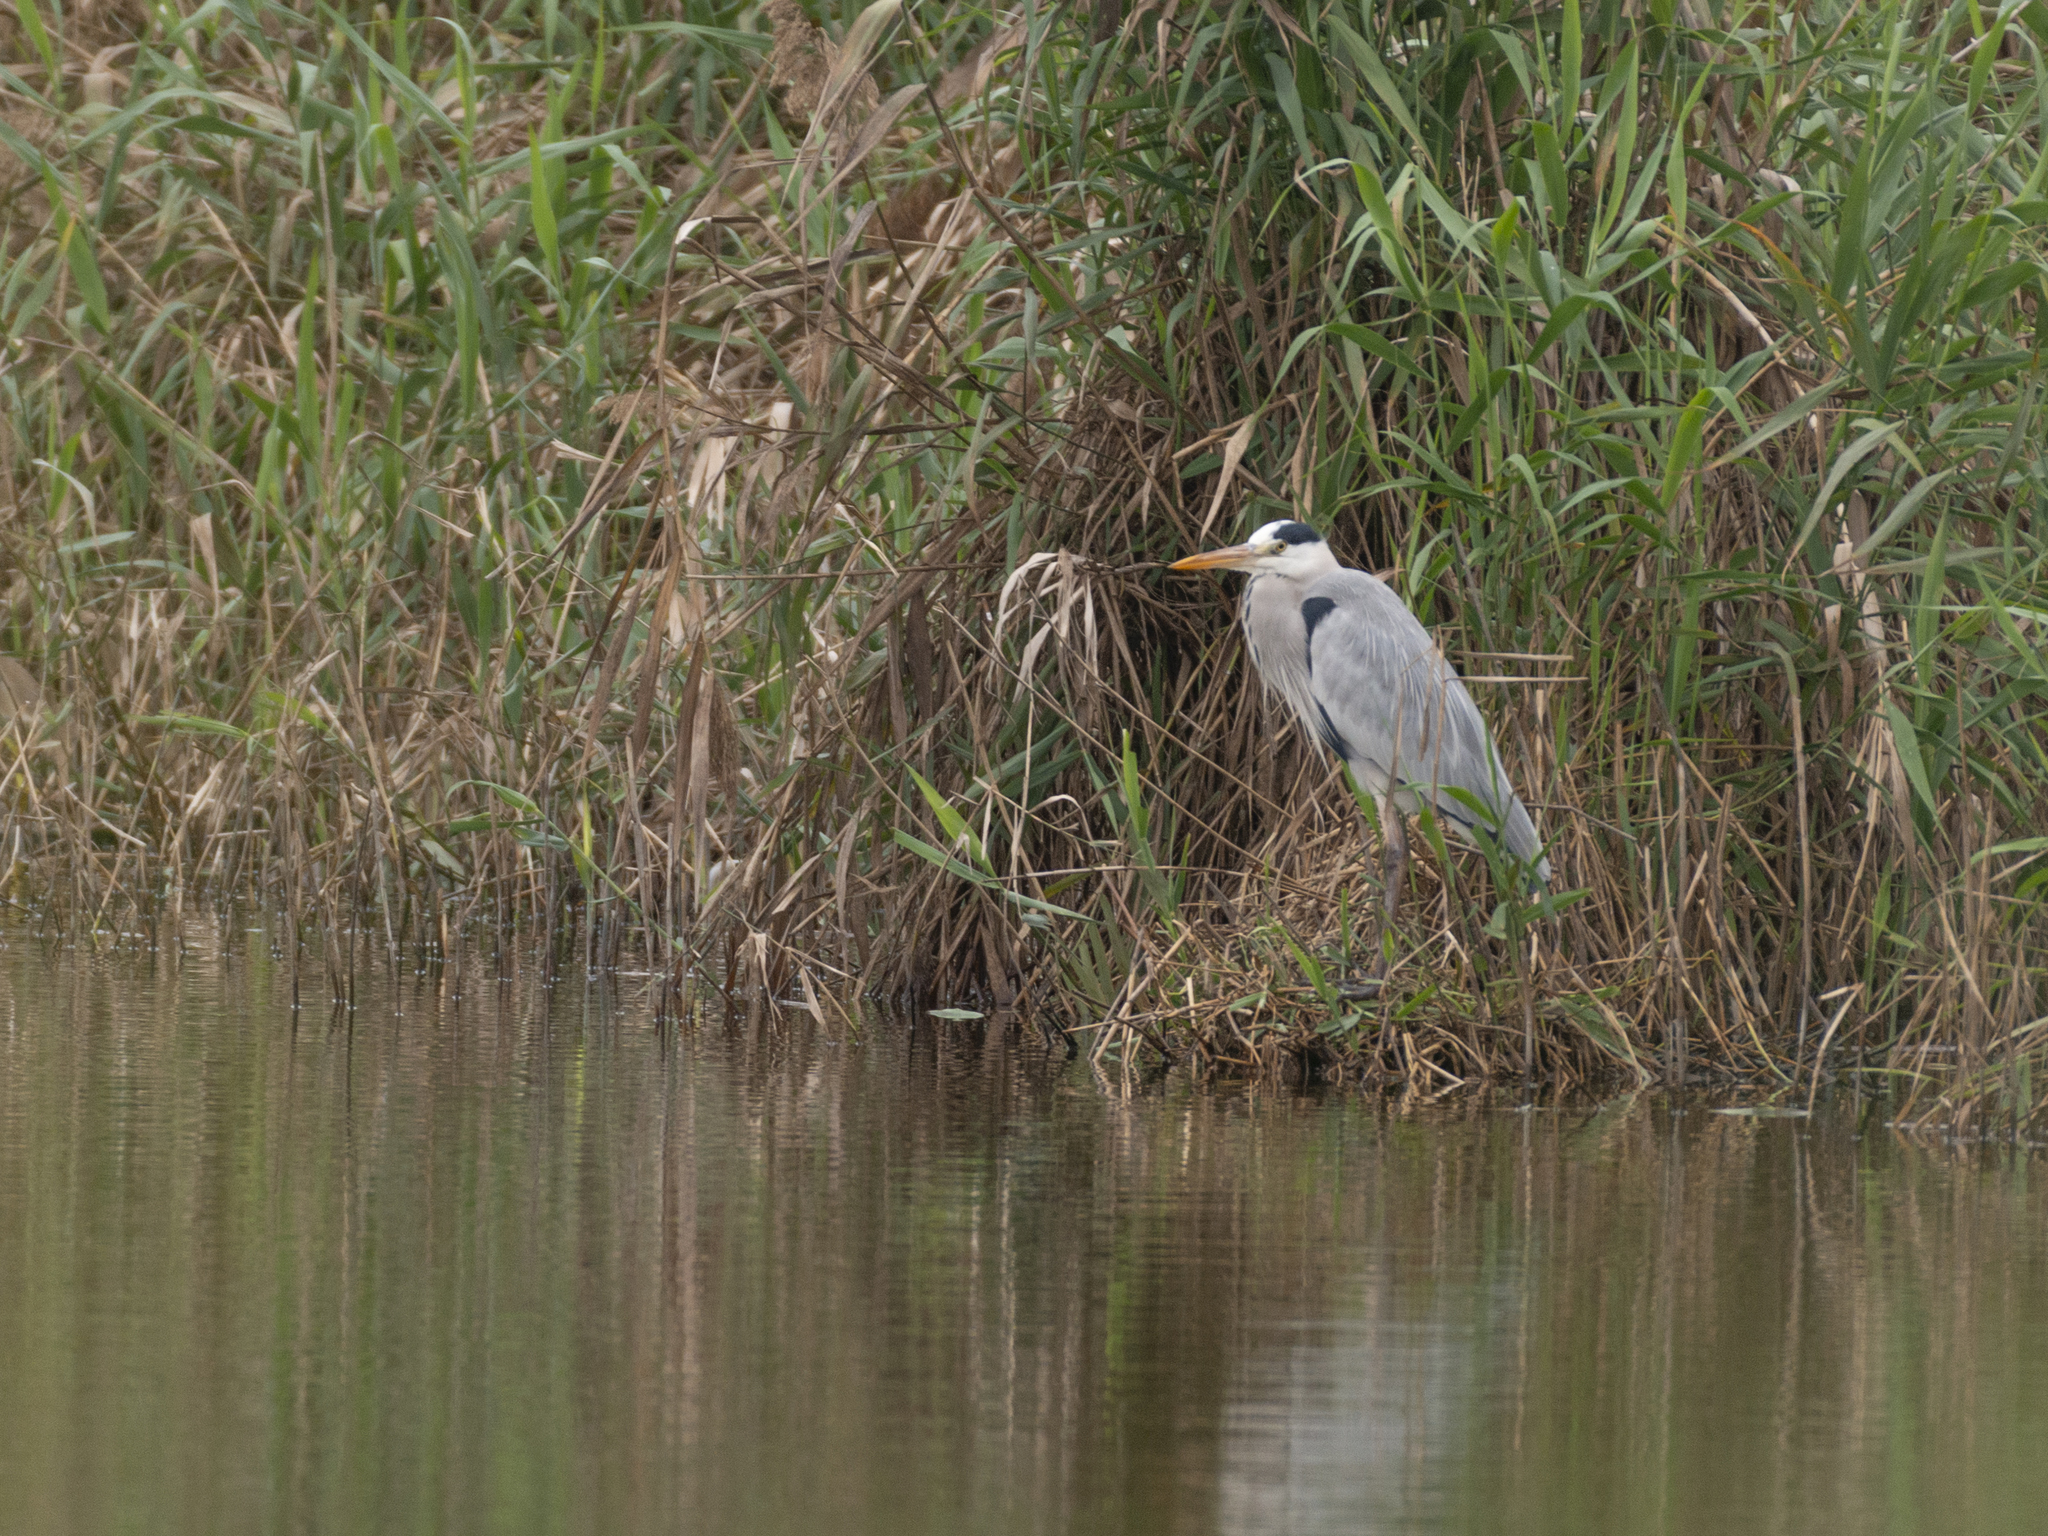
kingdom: Animalia
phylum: Chordata
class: Aves
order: Pelecaniformes
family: Ardeidae
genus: Ardea
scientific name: Ardea cinerea
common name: Grey heron
